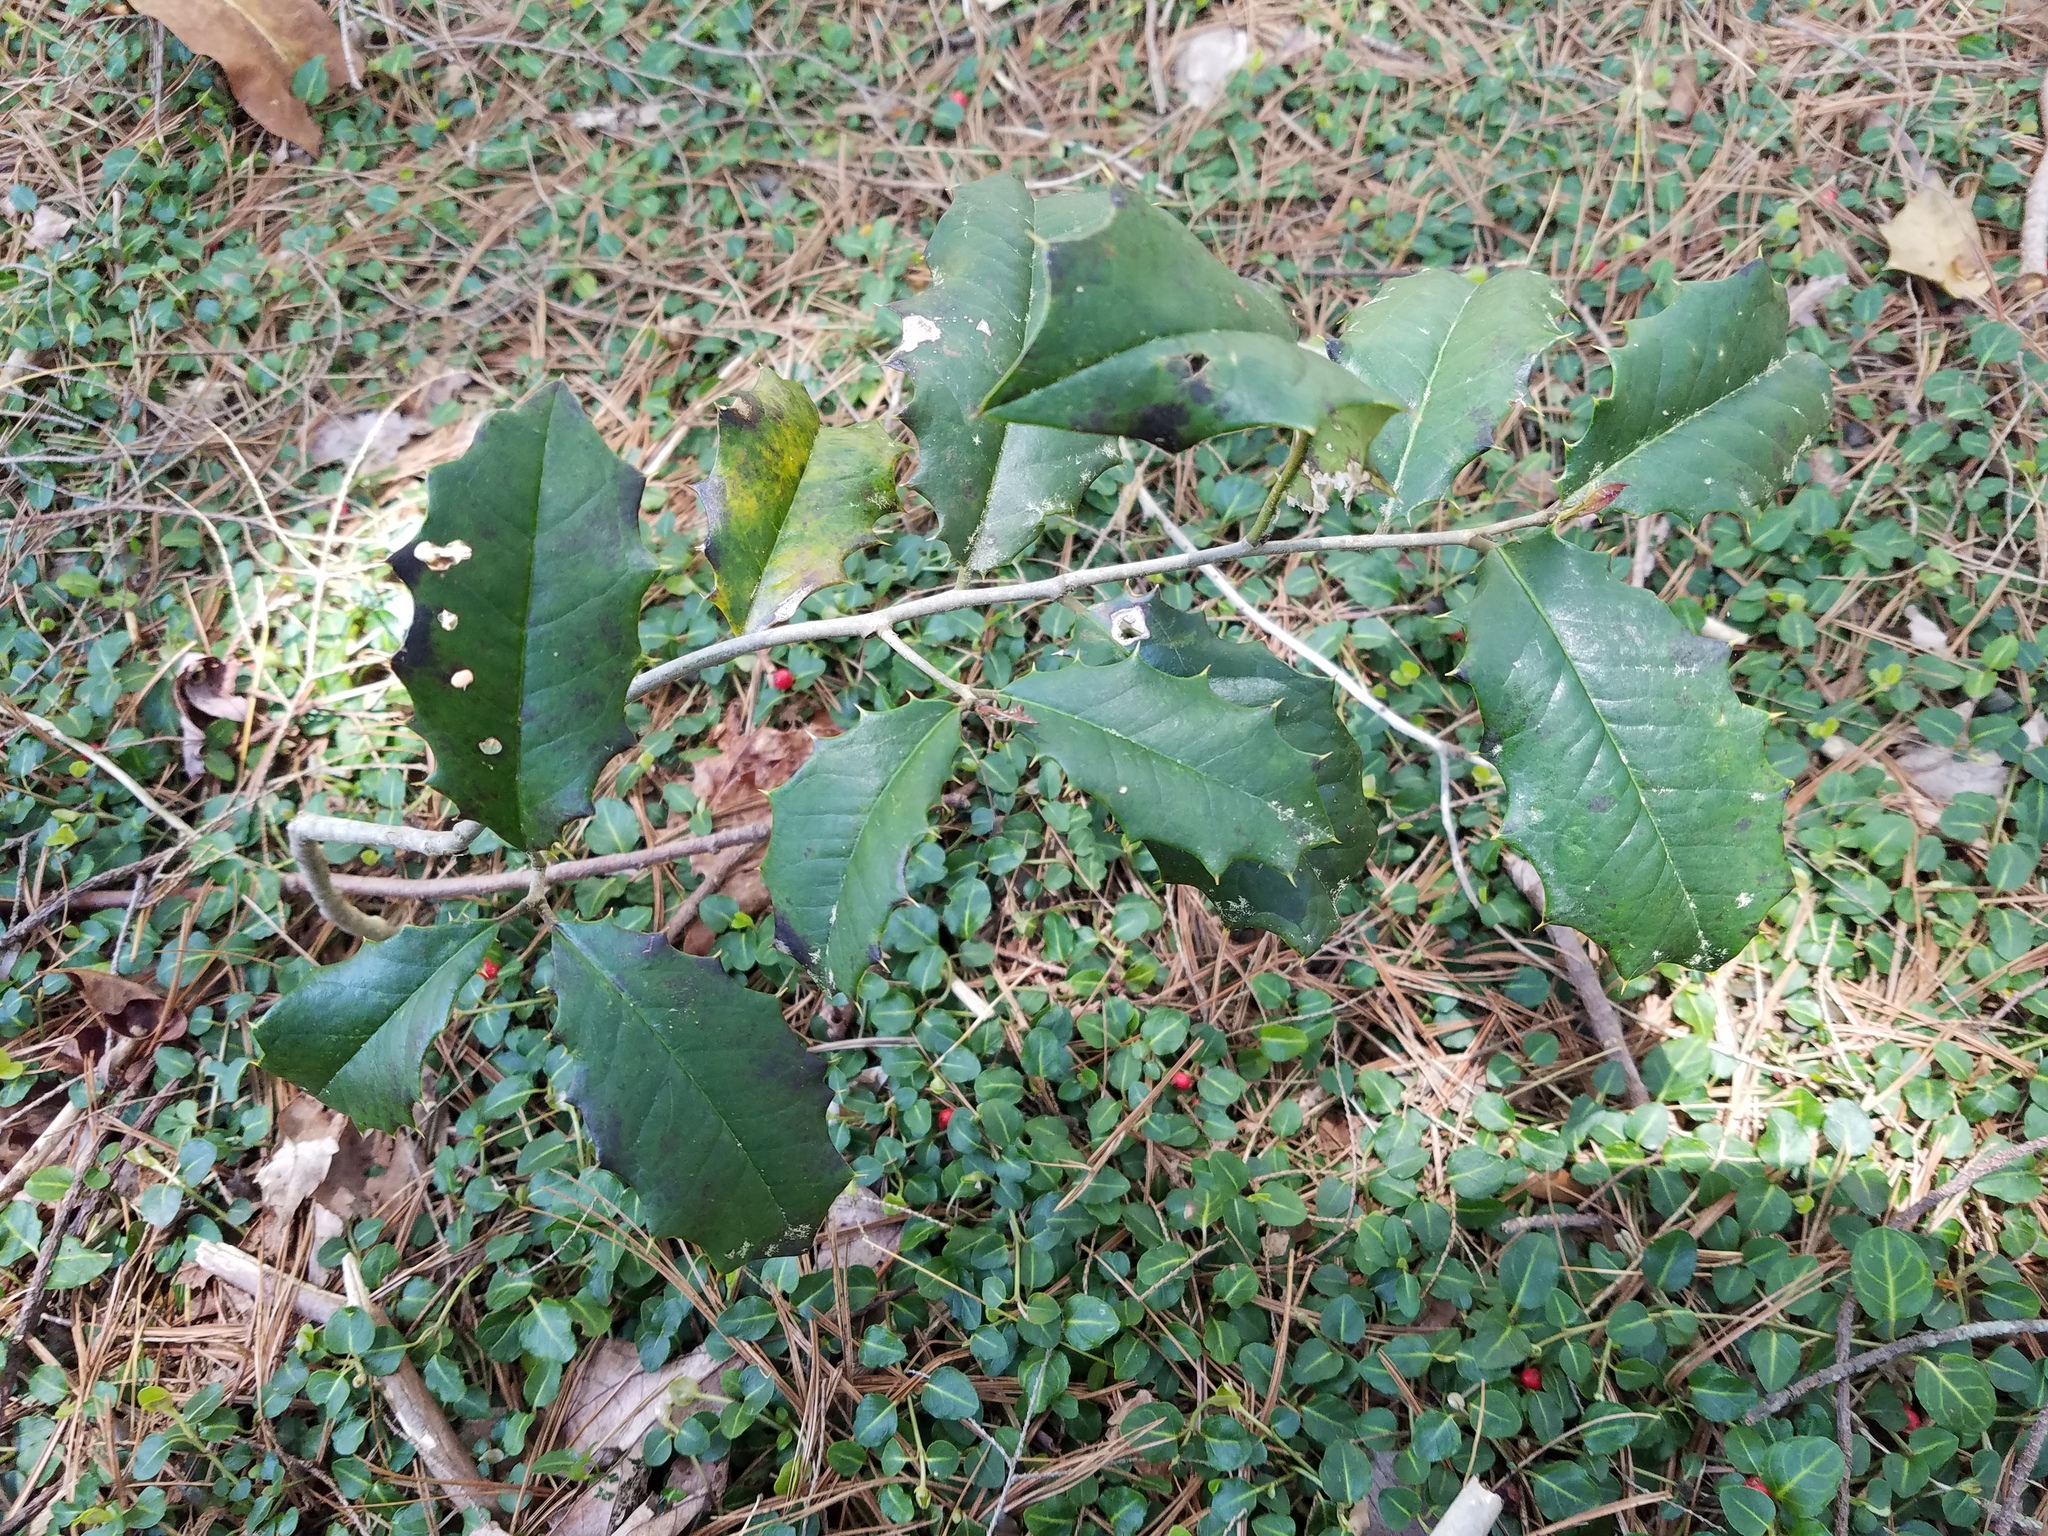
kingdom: Plantae
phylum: Tracheophyta
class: Magnoliopsida
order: Aquifoliales
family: Aquifoliaceae
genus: Ilex
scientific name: Ilex opaca
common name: American holly
